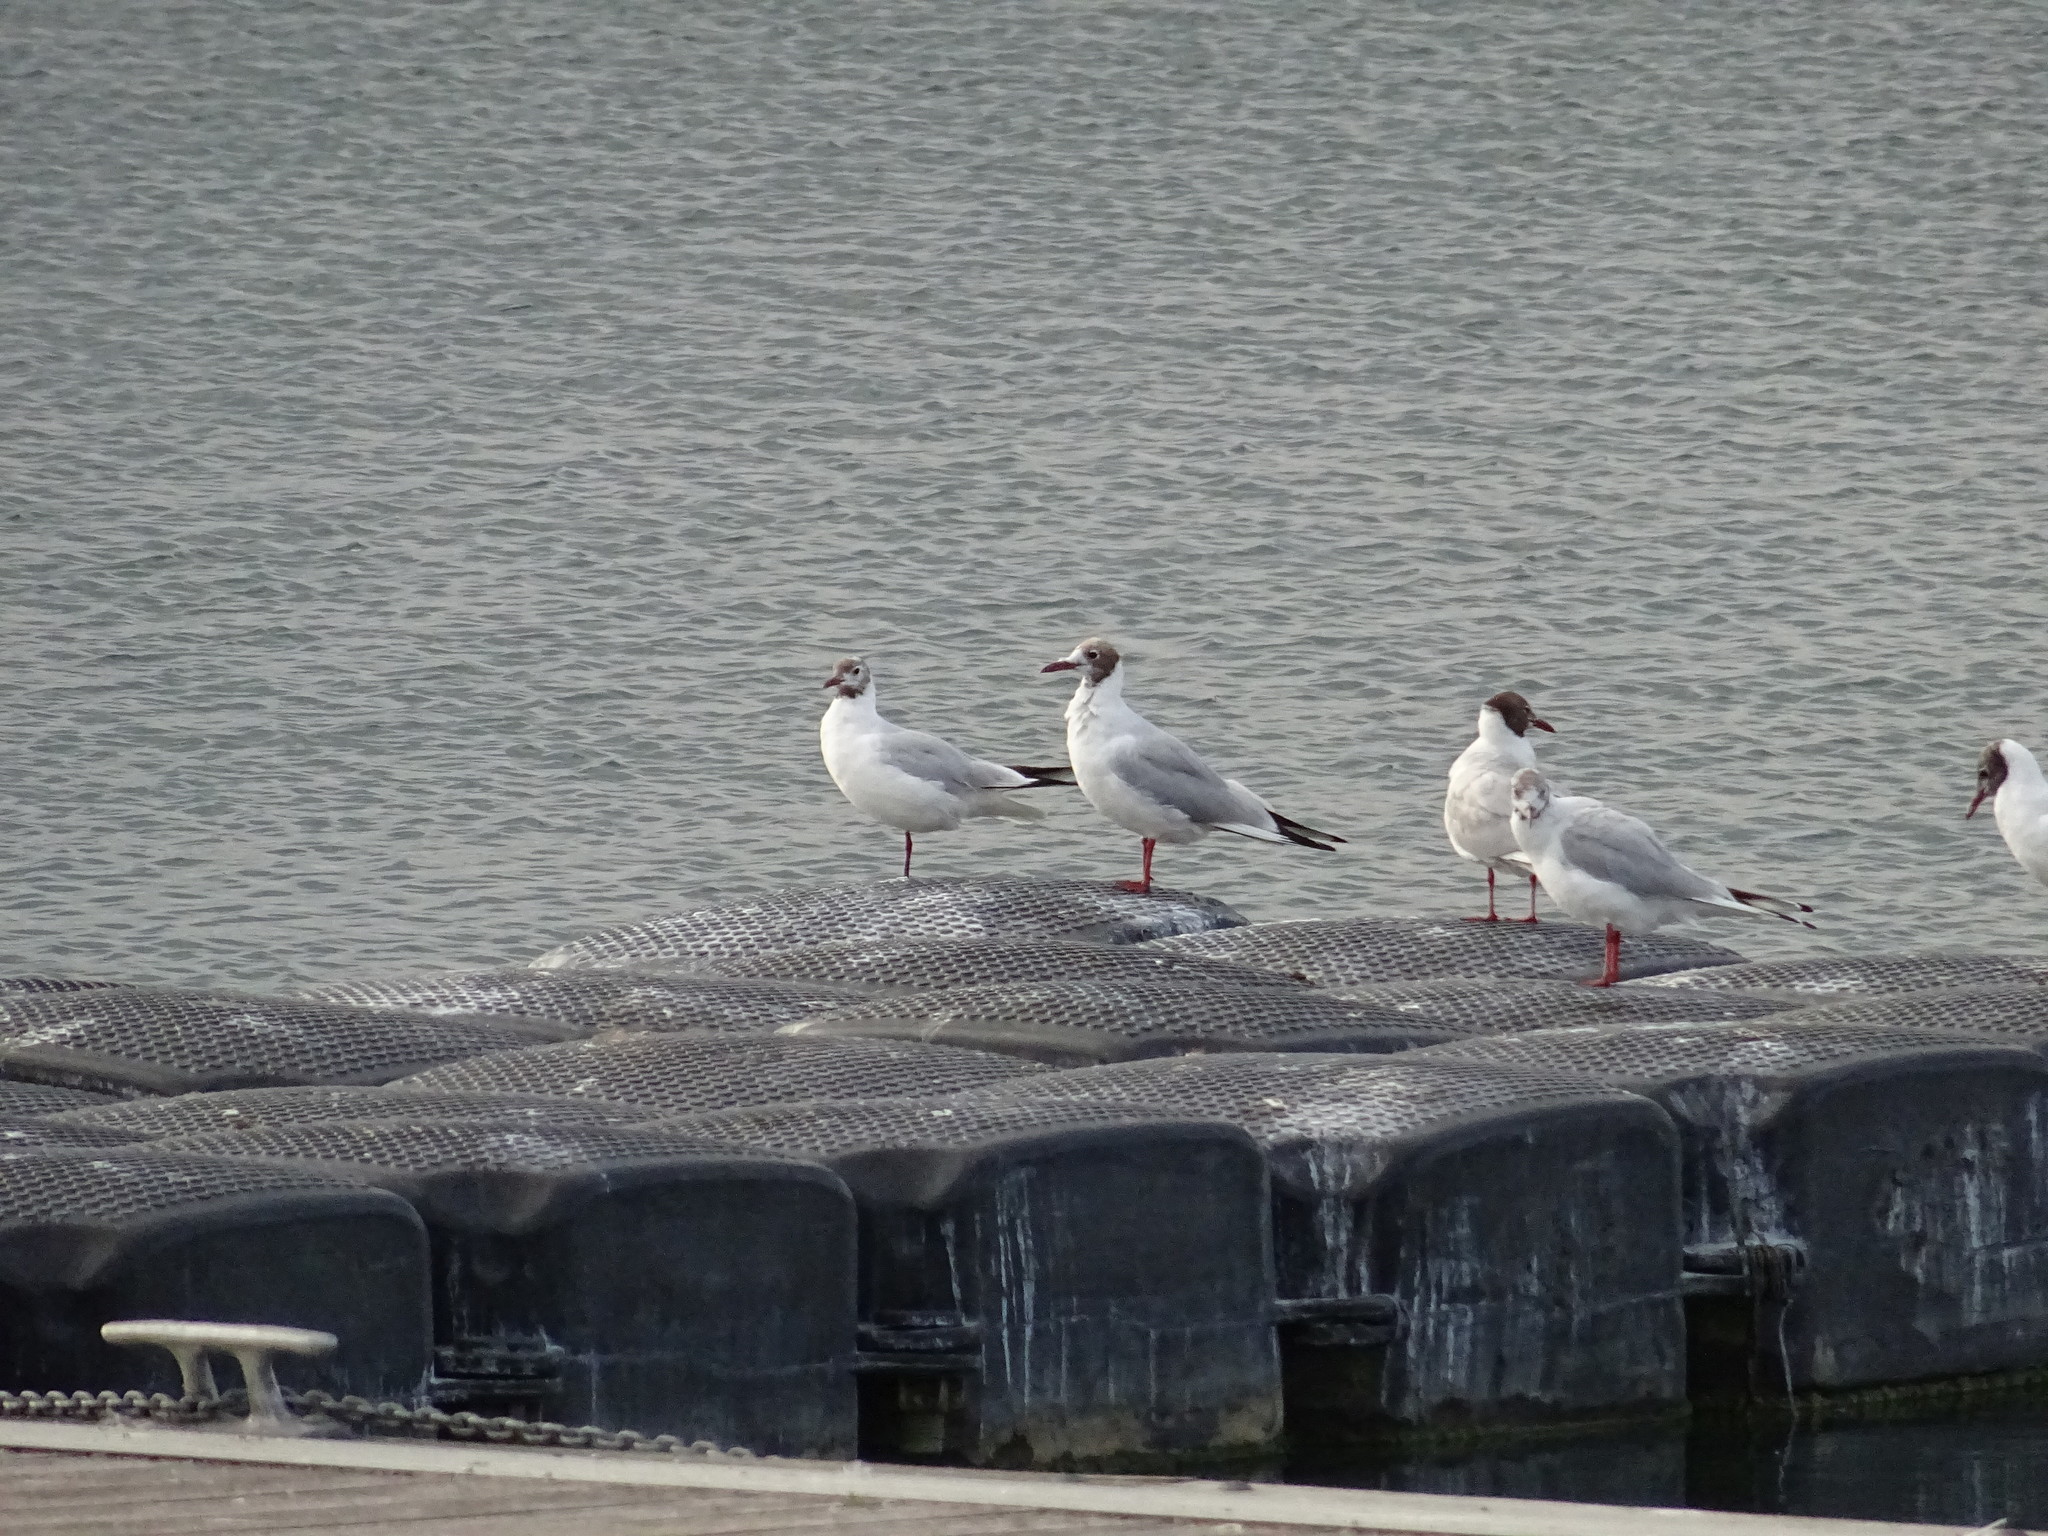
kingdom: Animalia
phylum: Chordata
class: Aves
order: Charadriiformes
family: Laridae
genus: Chroicocephalus
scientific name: Chroicocephalus ridibundus
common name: Black-headed gull
